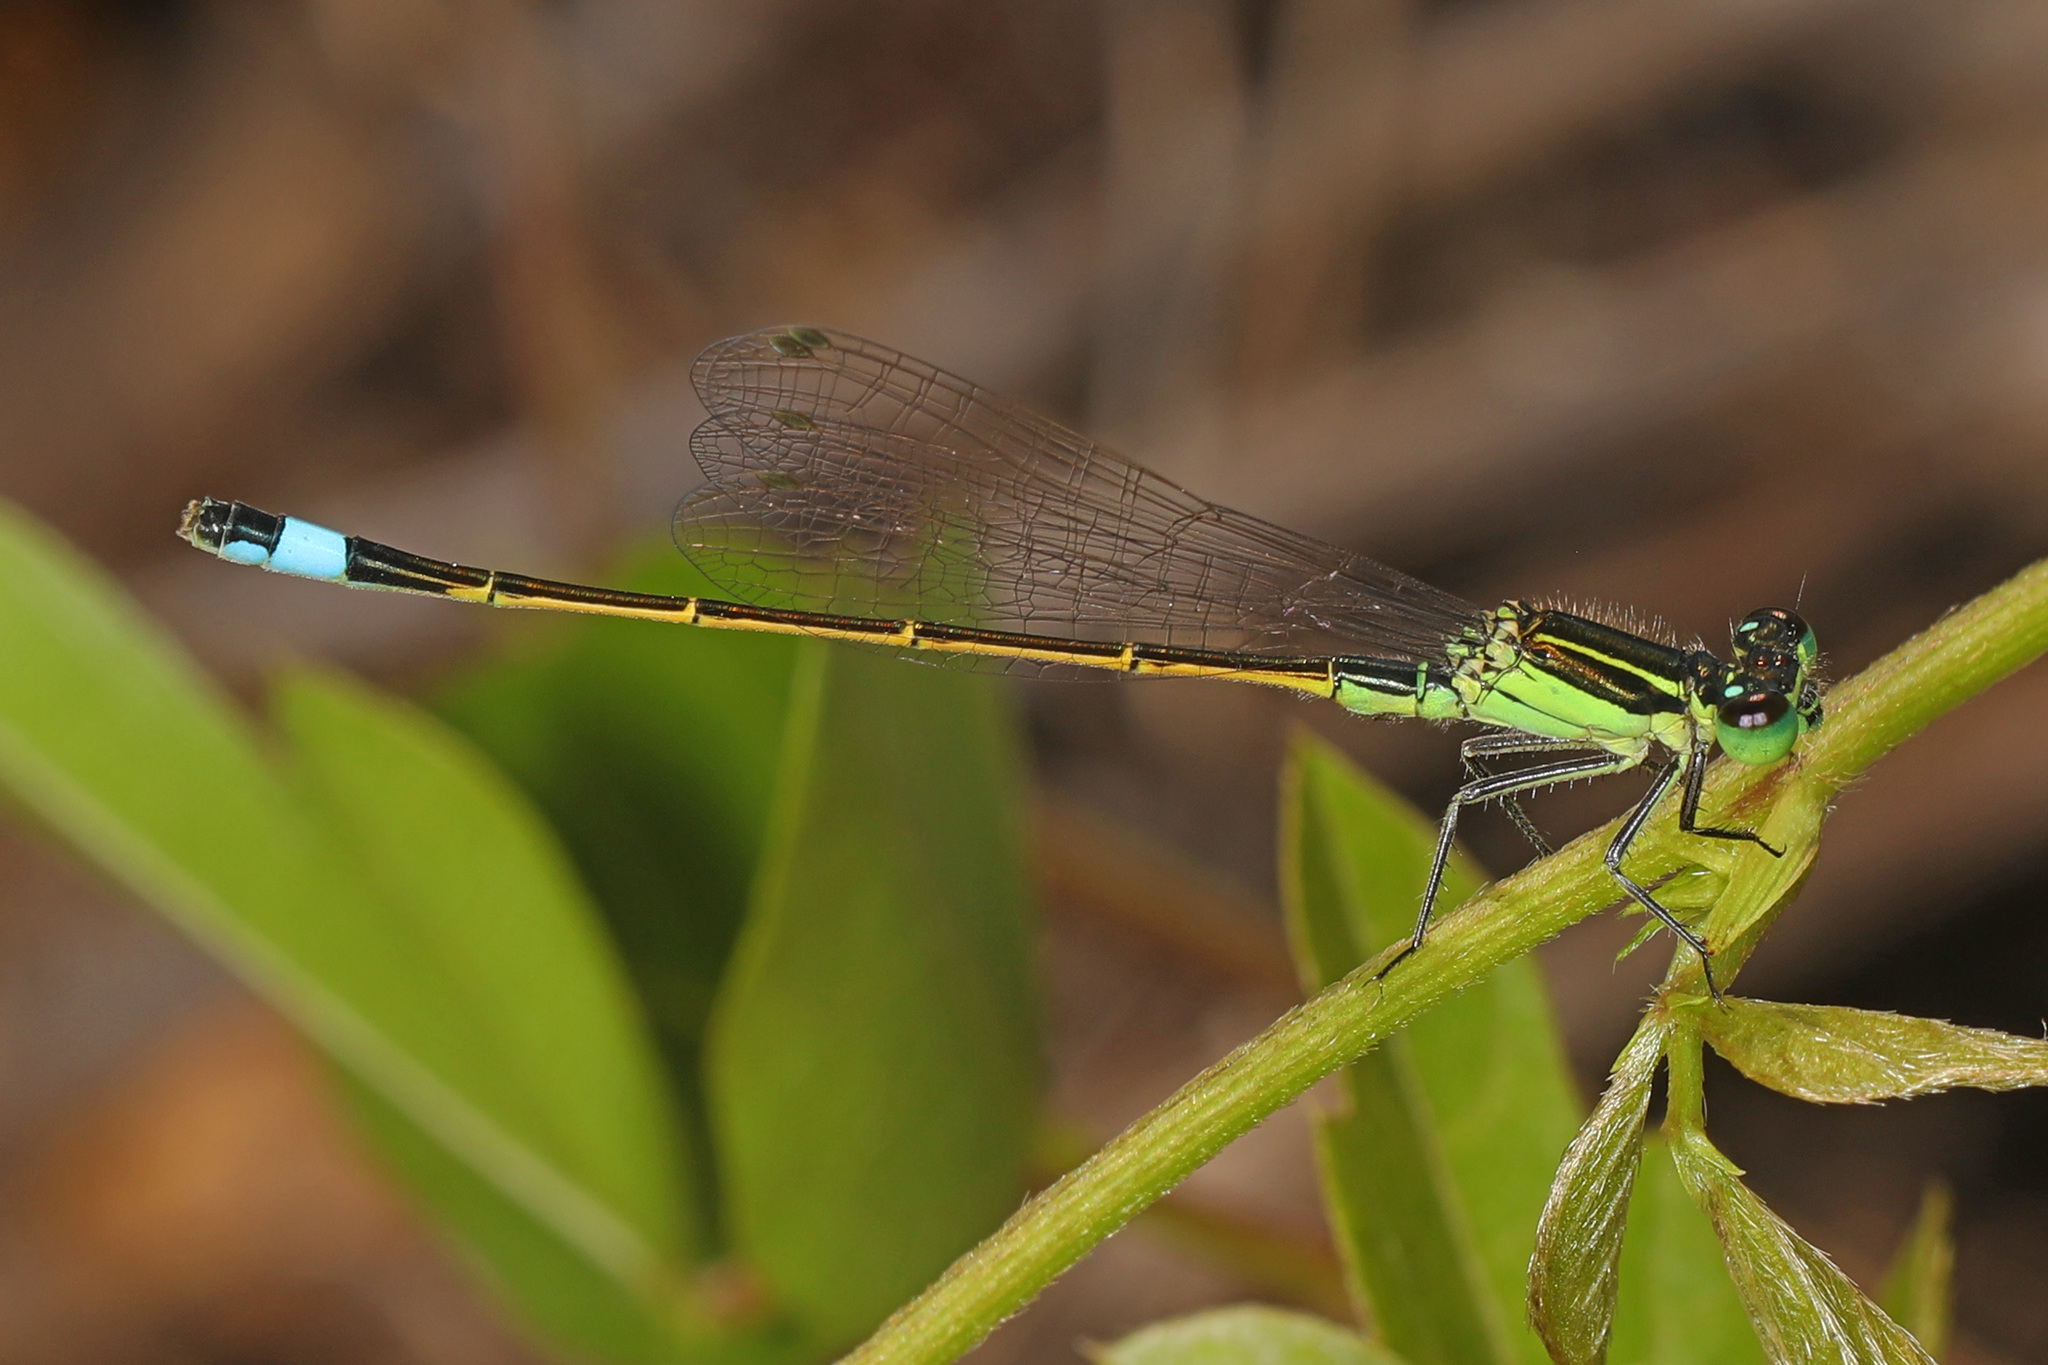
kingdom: Animalia
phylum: Arthropoda
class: Insecta
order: Odonata
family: Coenagrionidae
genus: Ischnura
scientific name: Ischnura ramburii
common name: Rambur's forktail
